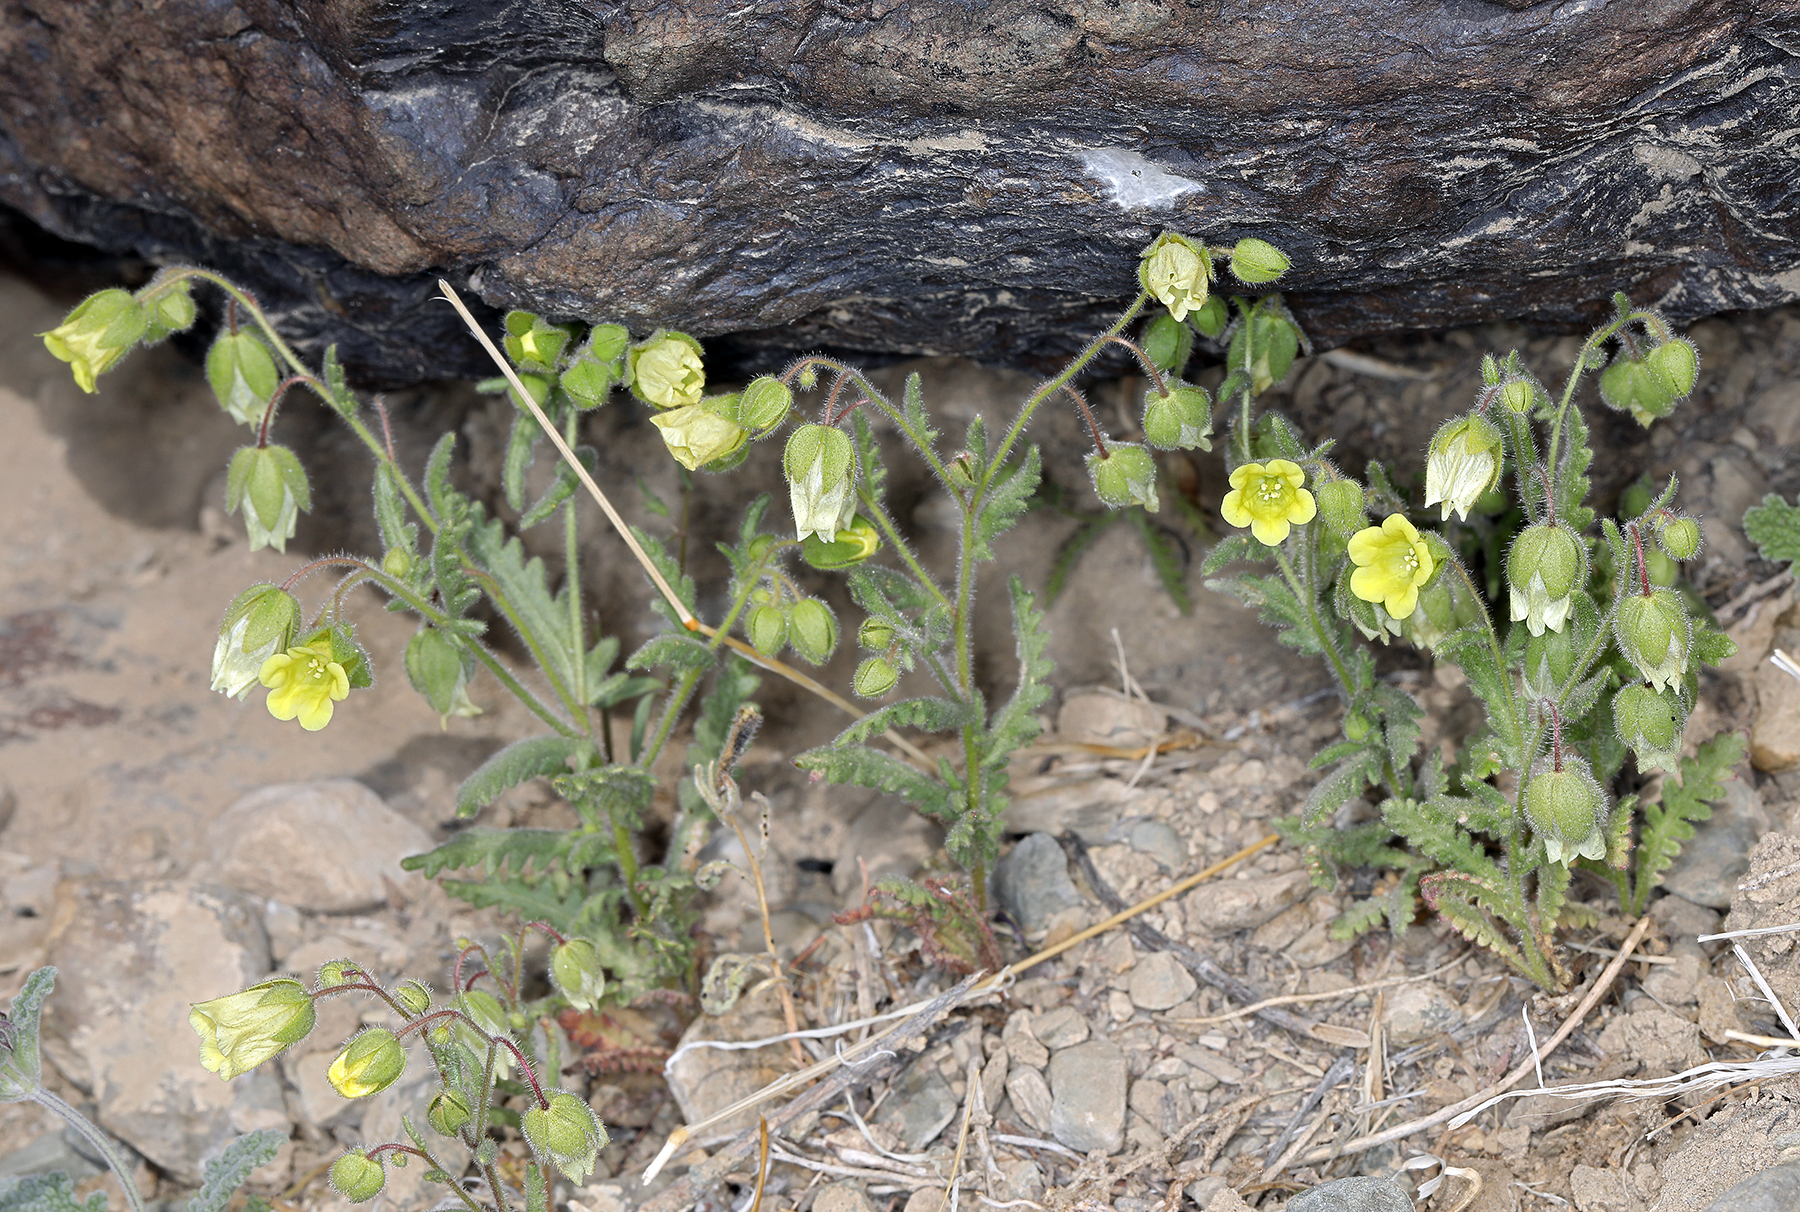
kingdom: Plantae
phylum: Tracheophyta
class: Magnoliopsida
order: Boraginales
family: Hydrophyllaceae
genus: Emmenanthe
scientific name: Emmenanthe penduliflora
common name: Whispering-bells
